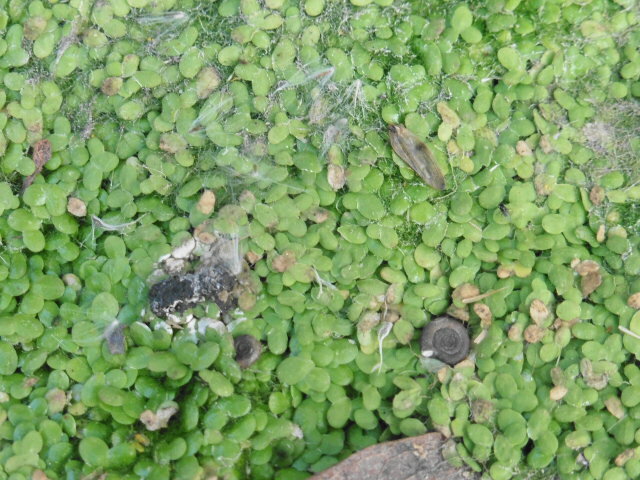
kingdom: Plantae
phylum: Tracheophyta
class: Liliopsida
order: Alismatales
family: Araceae
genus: Lemna
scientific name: Lemna minor
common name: Common duckweed
